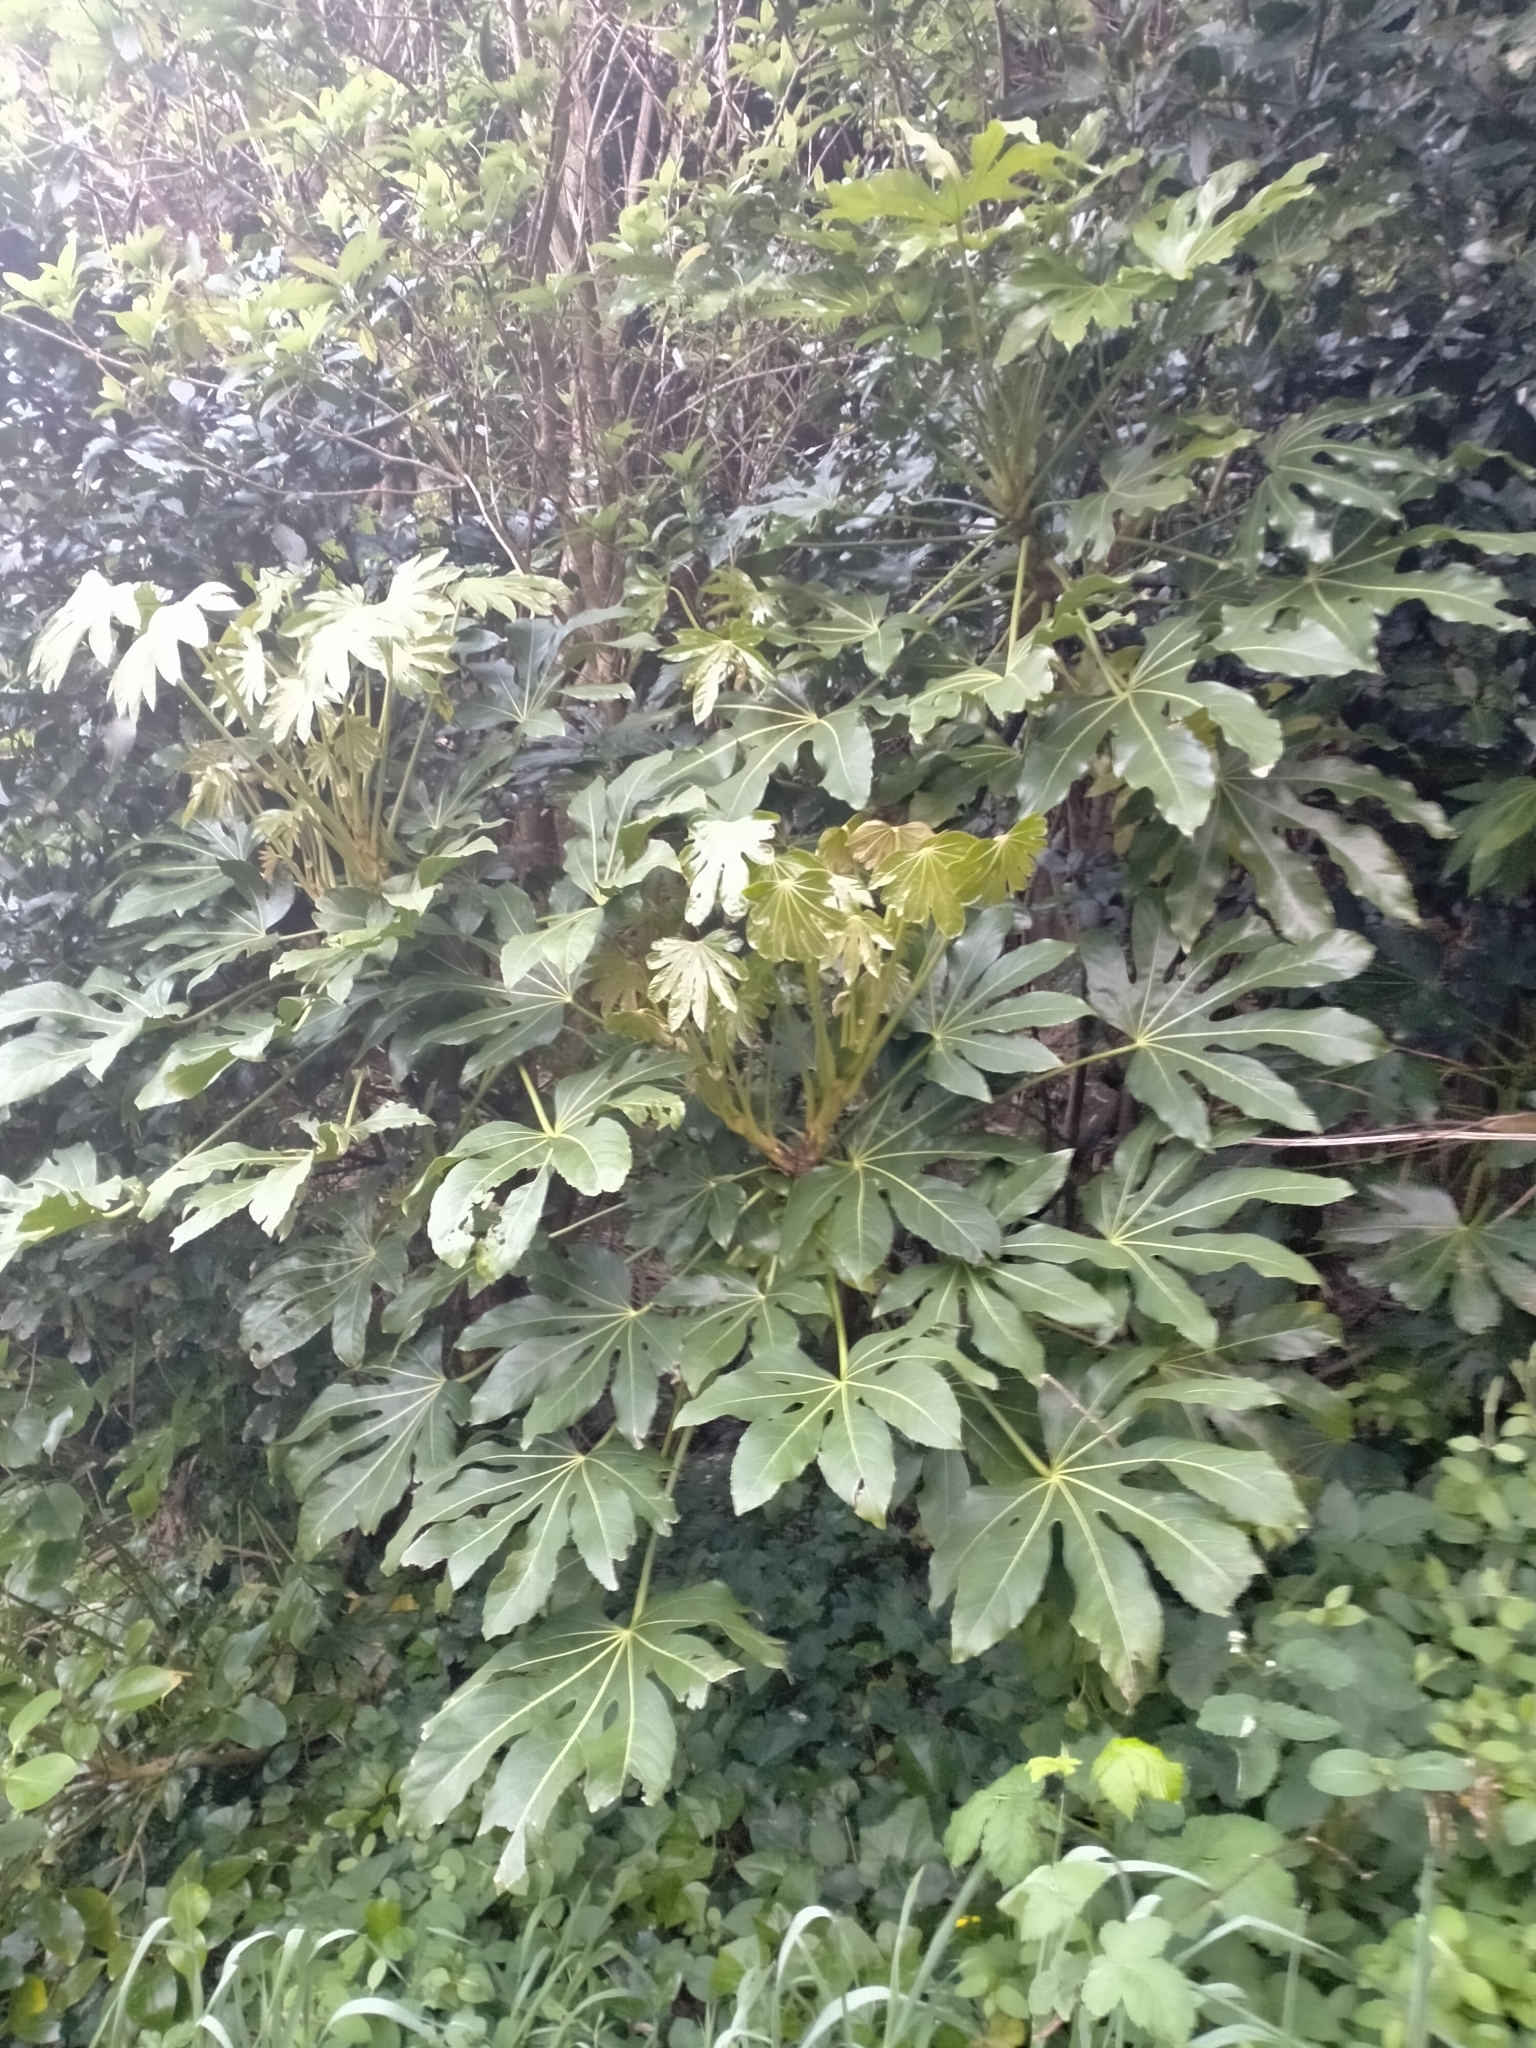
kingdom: Plantae
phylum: Tracheophyta
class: Magnoliopsida
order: Apiales
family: Araliaceae
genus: Fatsia
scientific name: Fatsia japonica
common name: Fatsia
